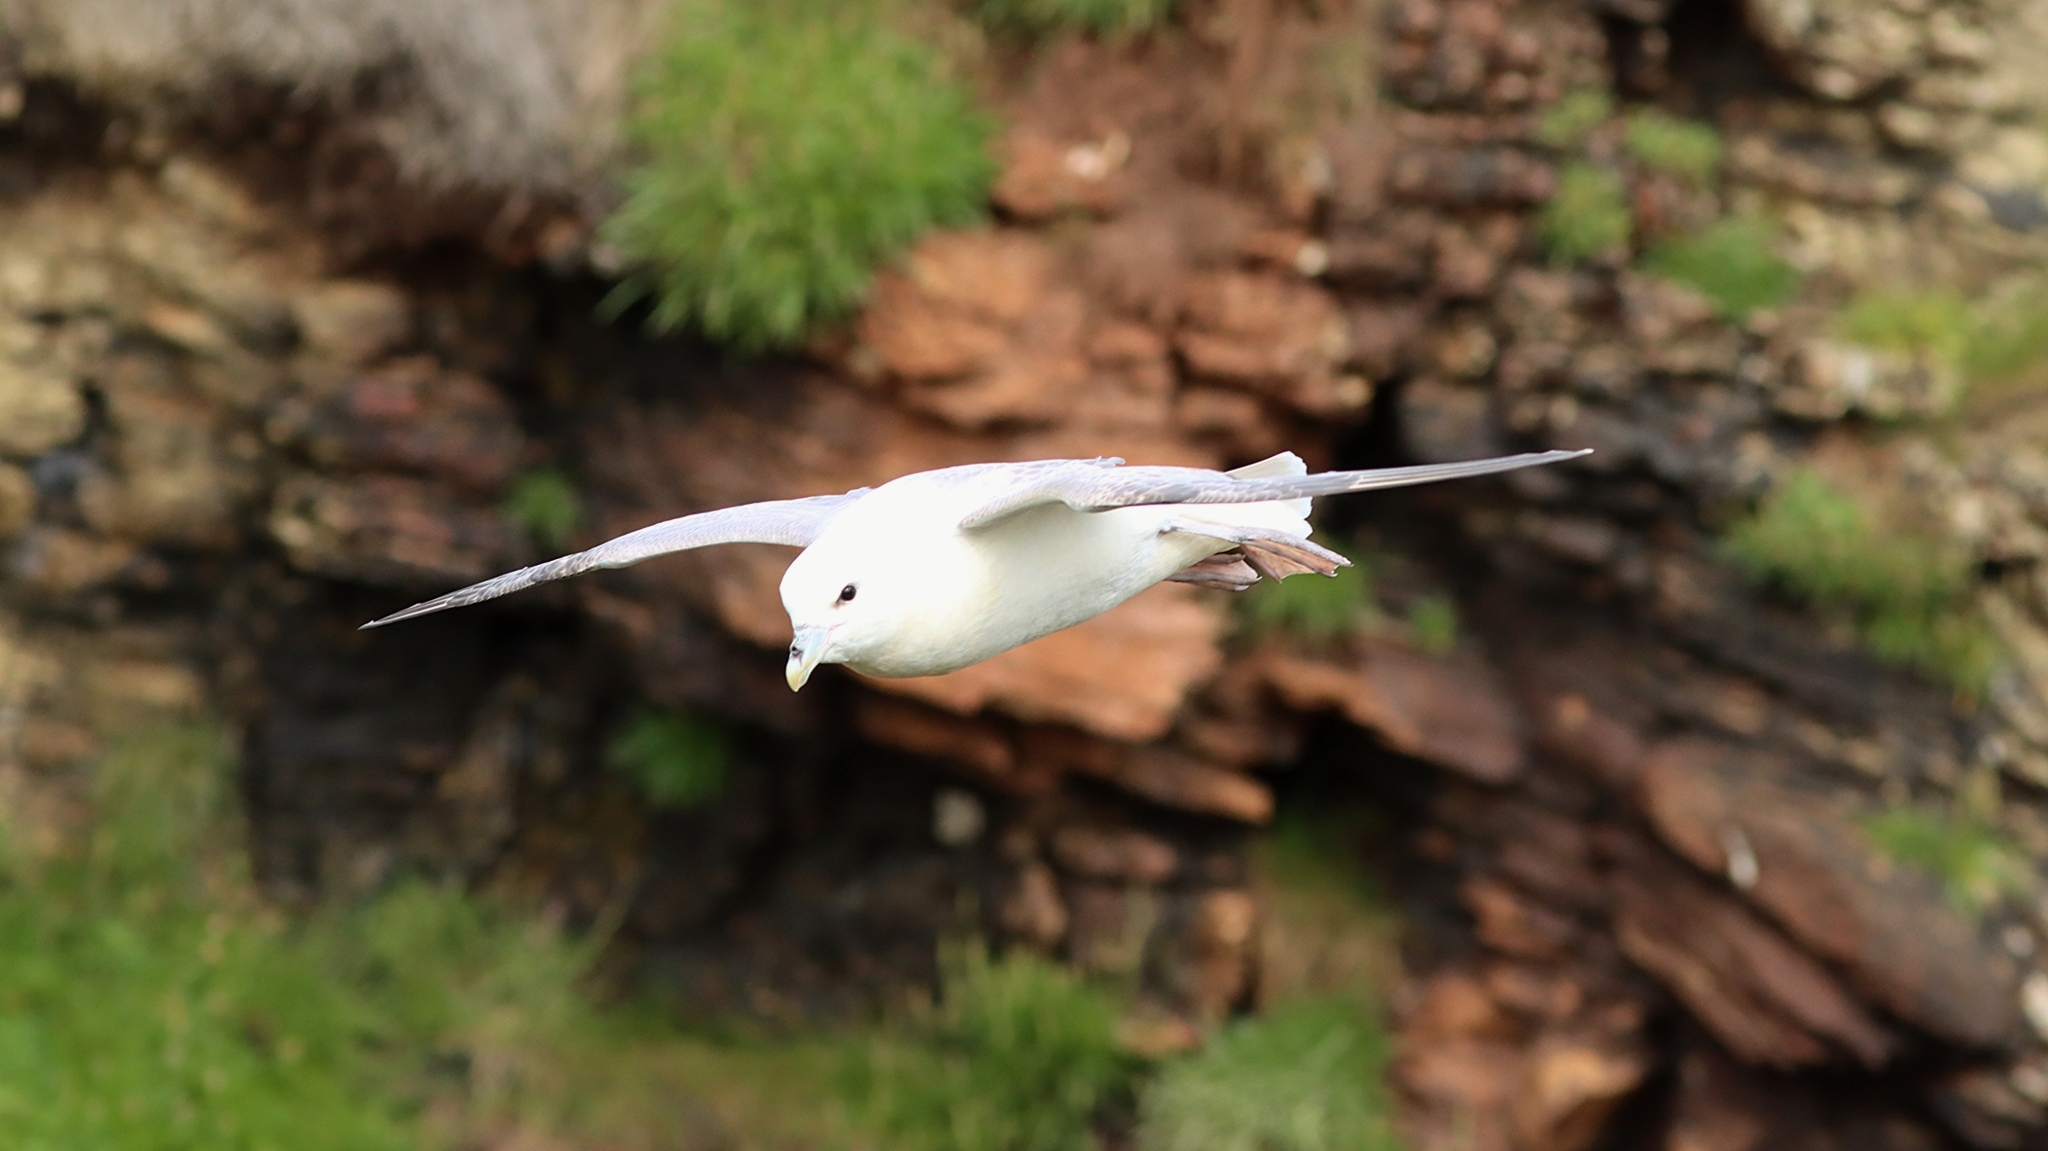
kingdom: Animalia
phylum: Chordata
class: Aves
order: Procellariiformes
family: Procellariidae
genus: Fulmarus
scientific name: Fulmarus glacialis
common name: Northern fulmar
